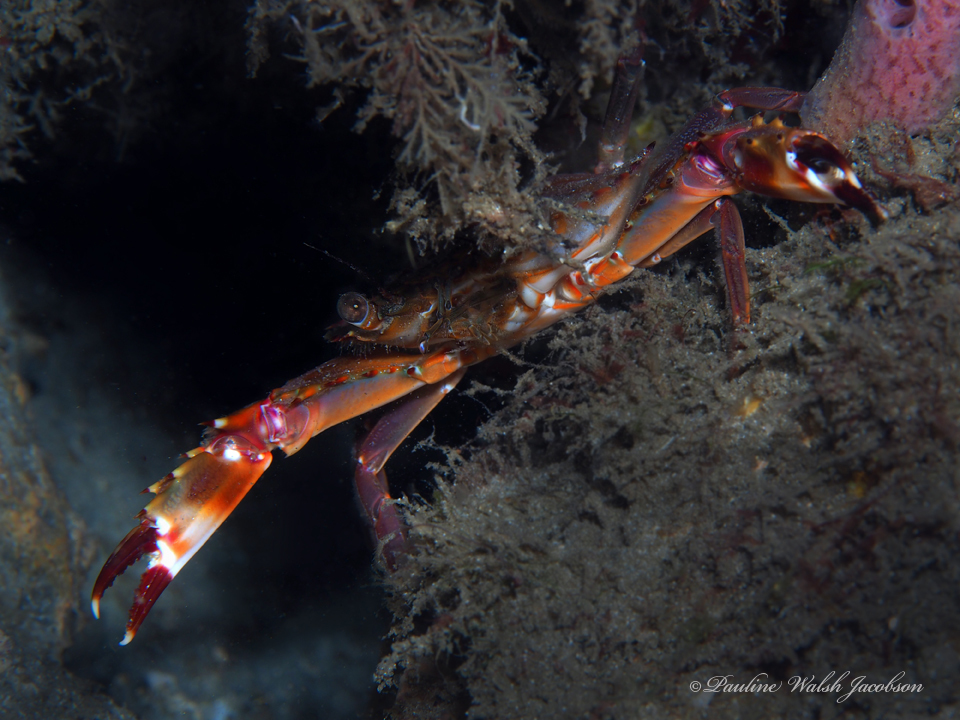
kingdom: Animalia
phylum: Arthropoda
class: Malacostraca
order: Decapoda
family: Portunidae
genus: Charybdis
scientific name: Charybdis hellerii
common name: Spiny hands
